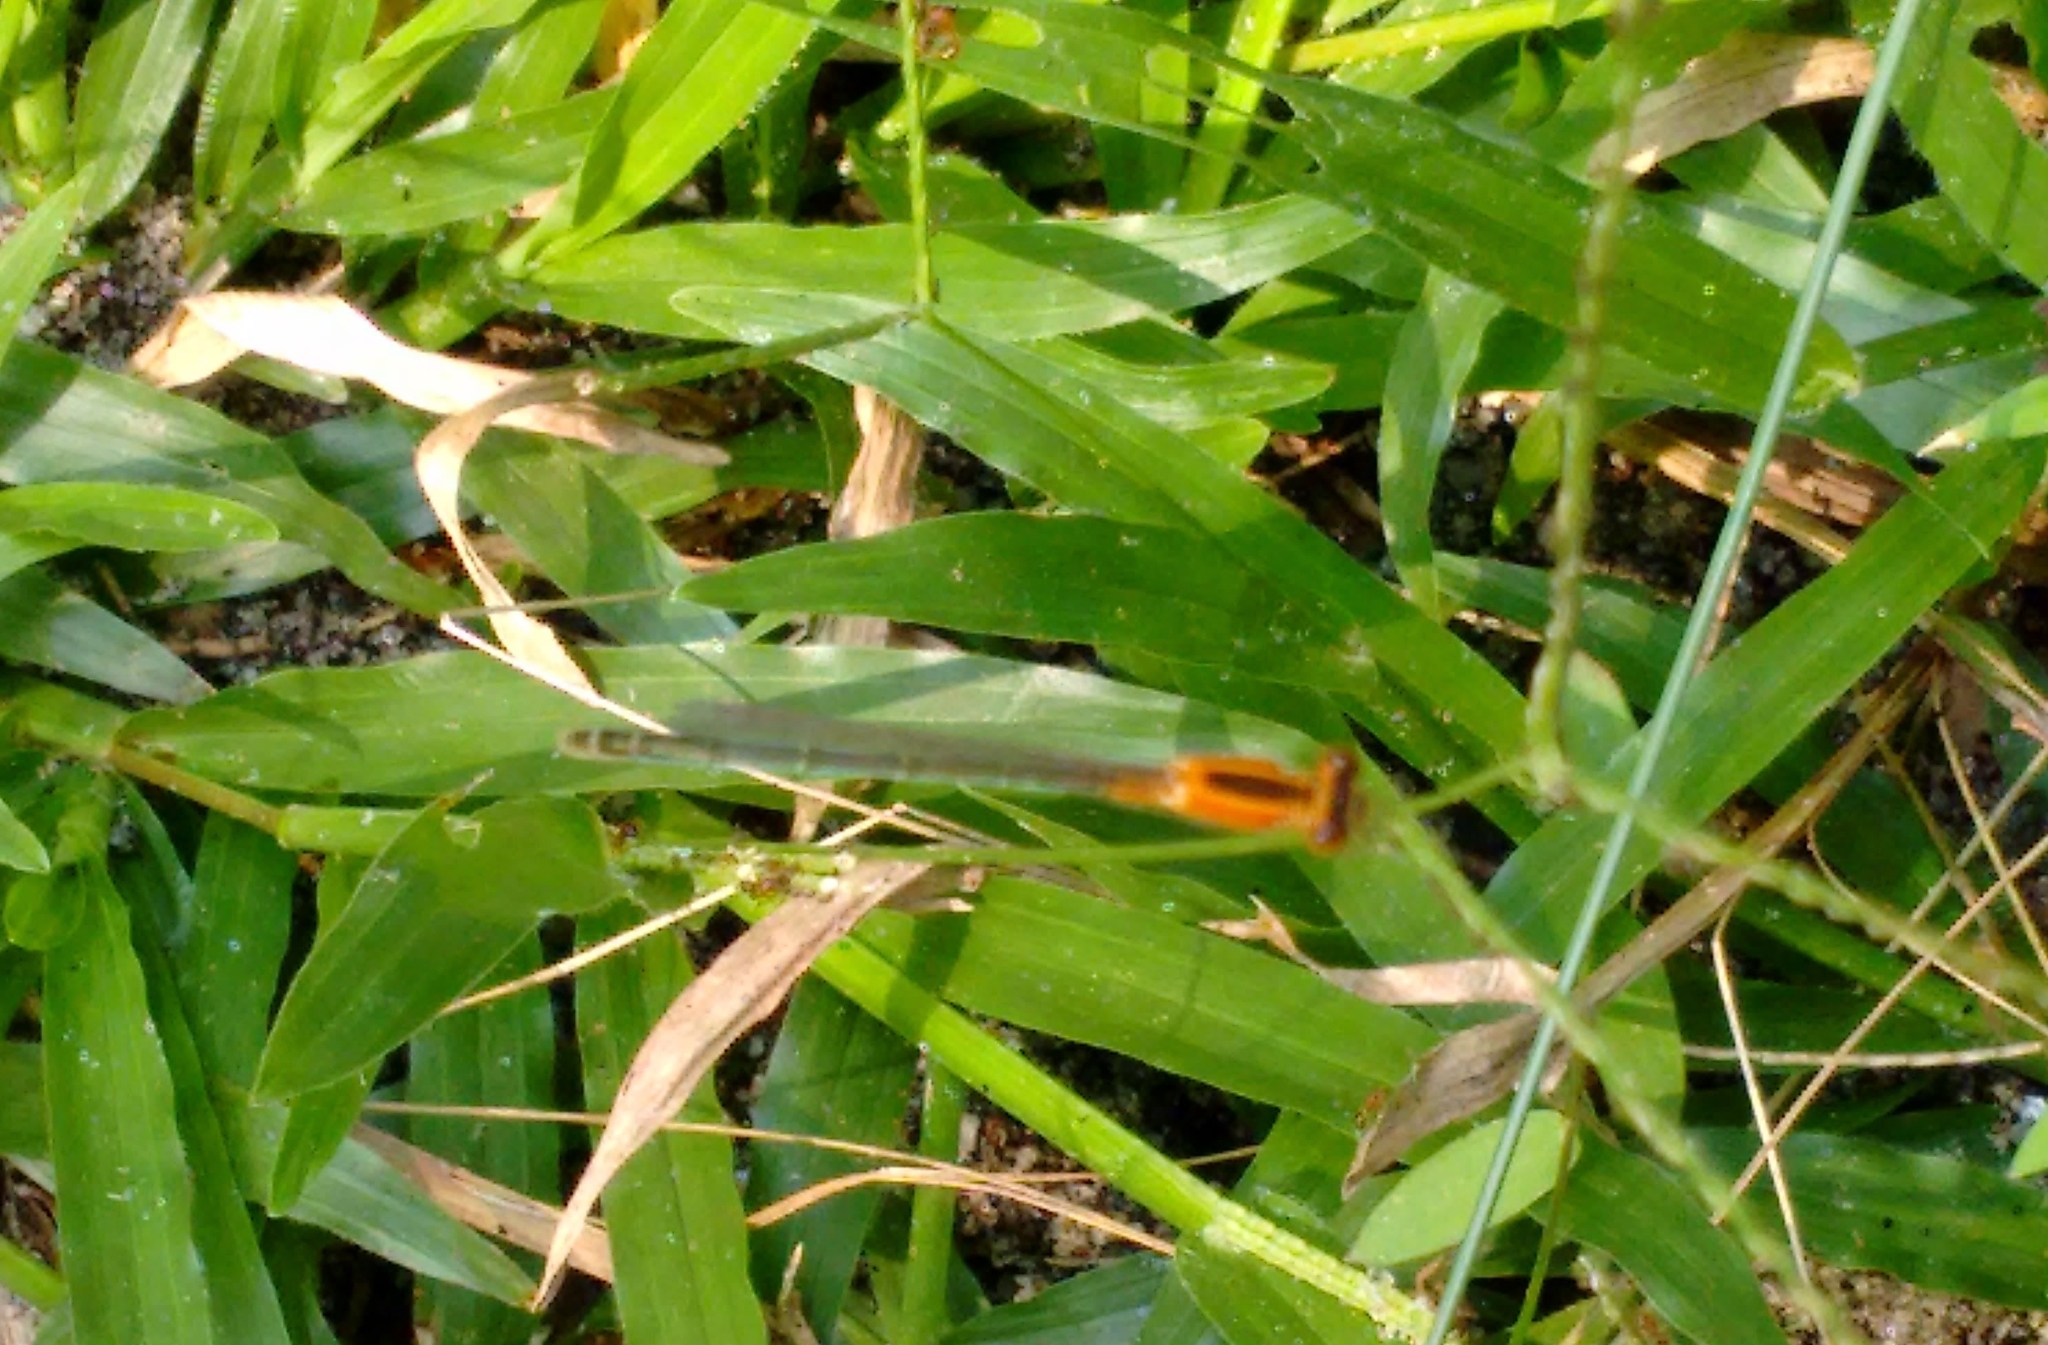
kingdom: Animalia
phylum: Arthropoda
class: Insecta
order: Odonata
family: Coenagrionidae
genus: Ischnura
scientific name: Ischnura senegalensis
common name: Tropical bluetail
